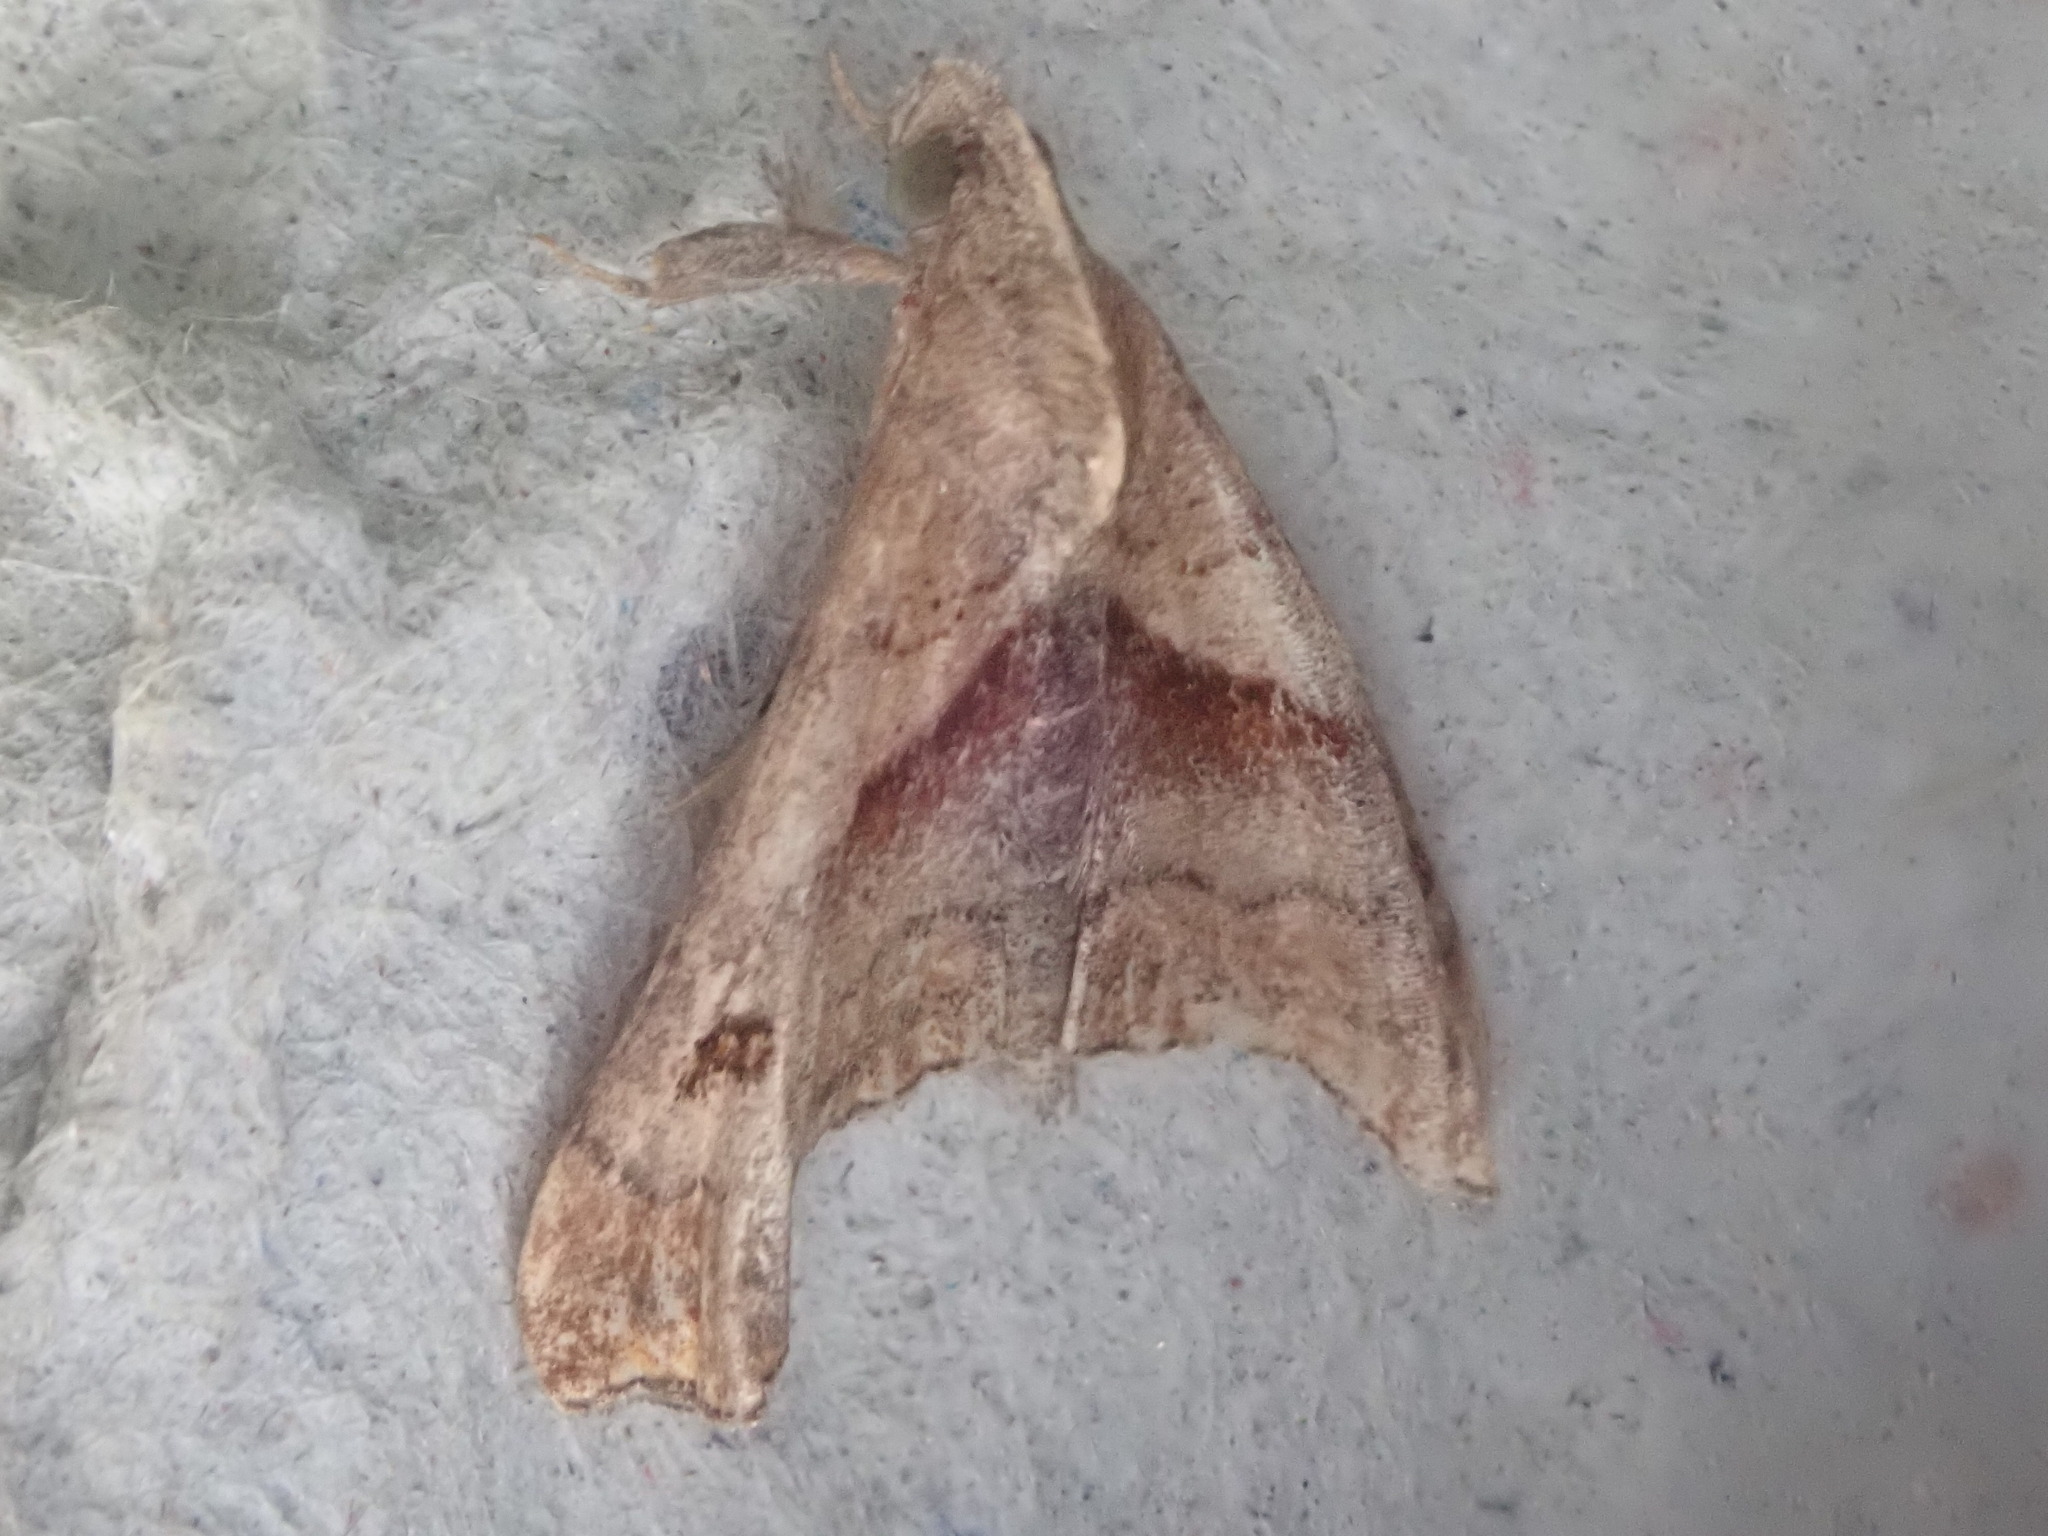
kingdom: Animalia
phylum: Arthropoda
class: Insecta
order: Lepidoptera
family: Erebidae
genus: Palthis
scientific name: Palthis angulalis
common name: Dark-spotted palthis moth
